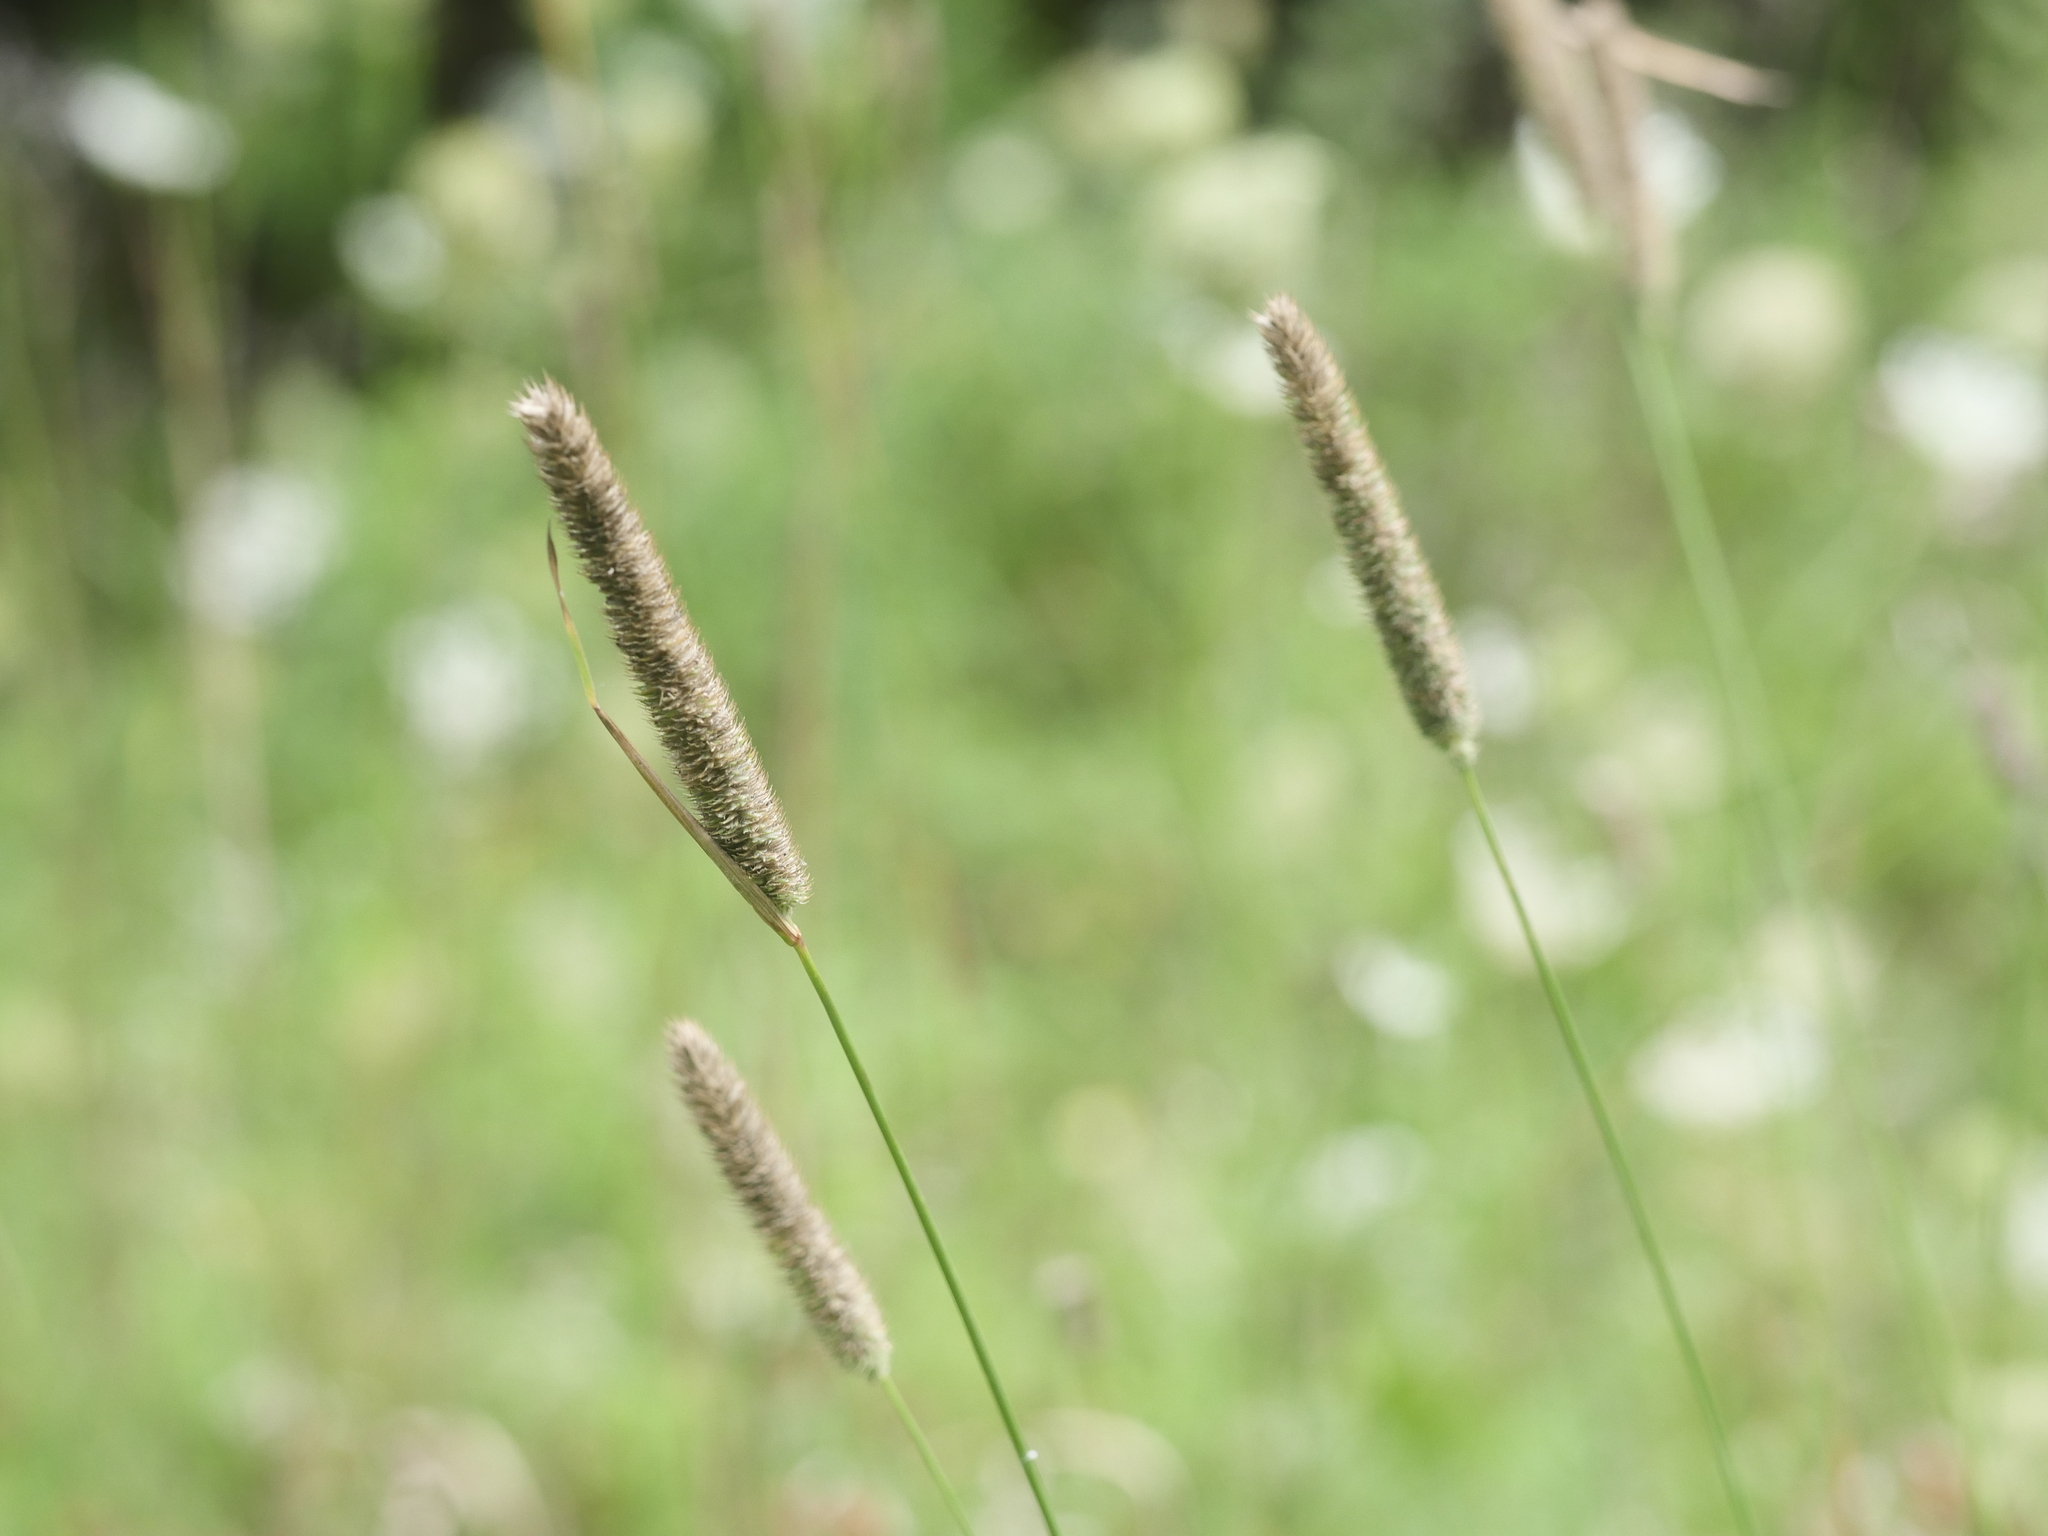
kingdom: Plantae
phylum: Tracheophyta
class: Liliopsida
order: Poales
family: Poaceae
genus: Phleum
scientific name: Phleum pratense
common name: Timothy grass
